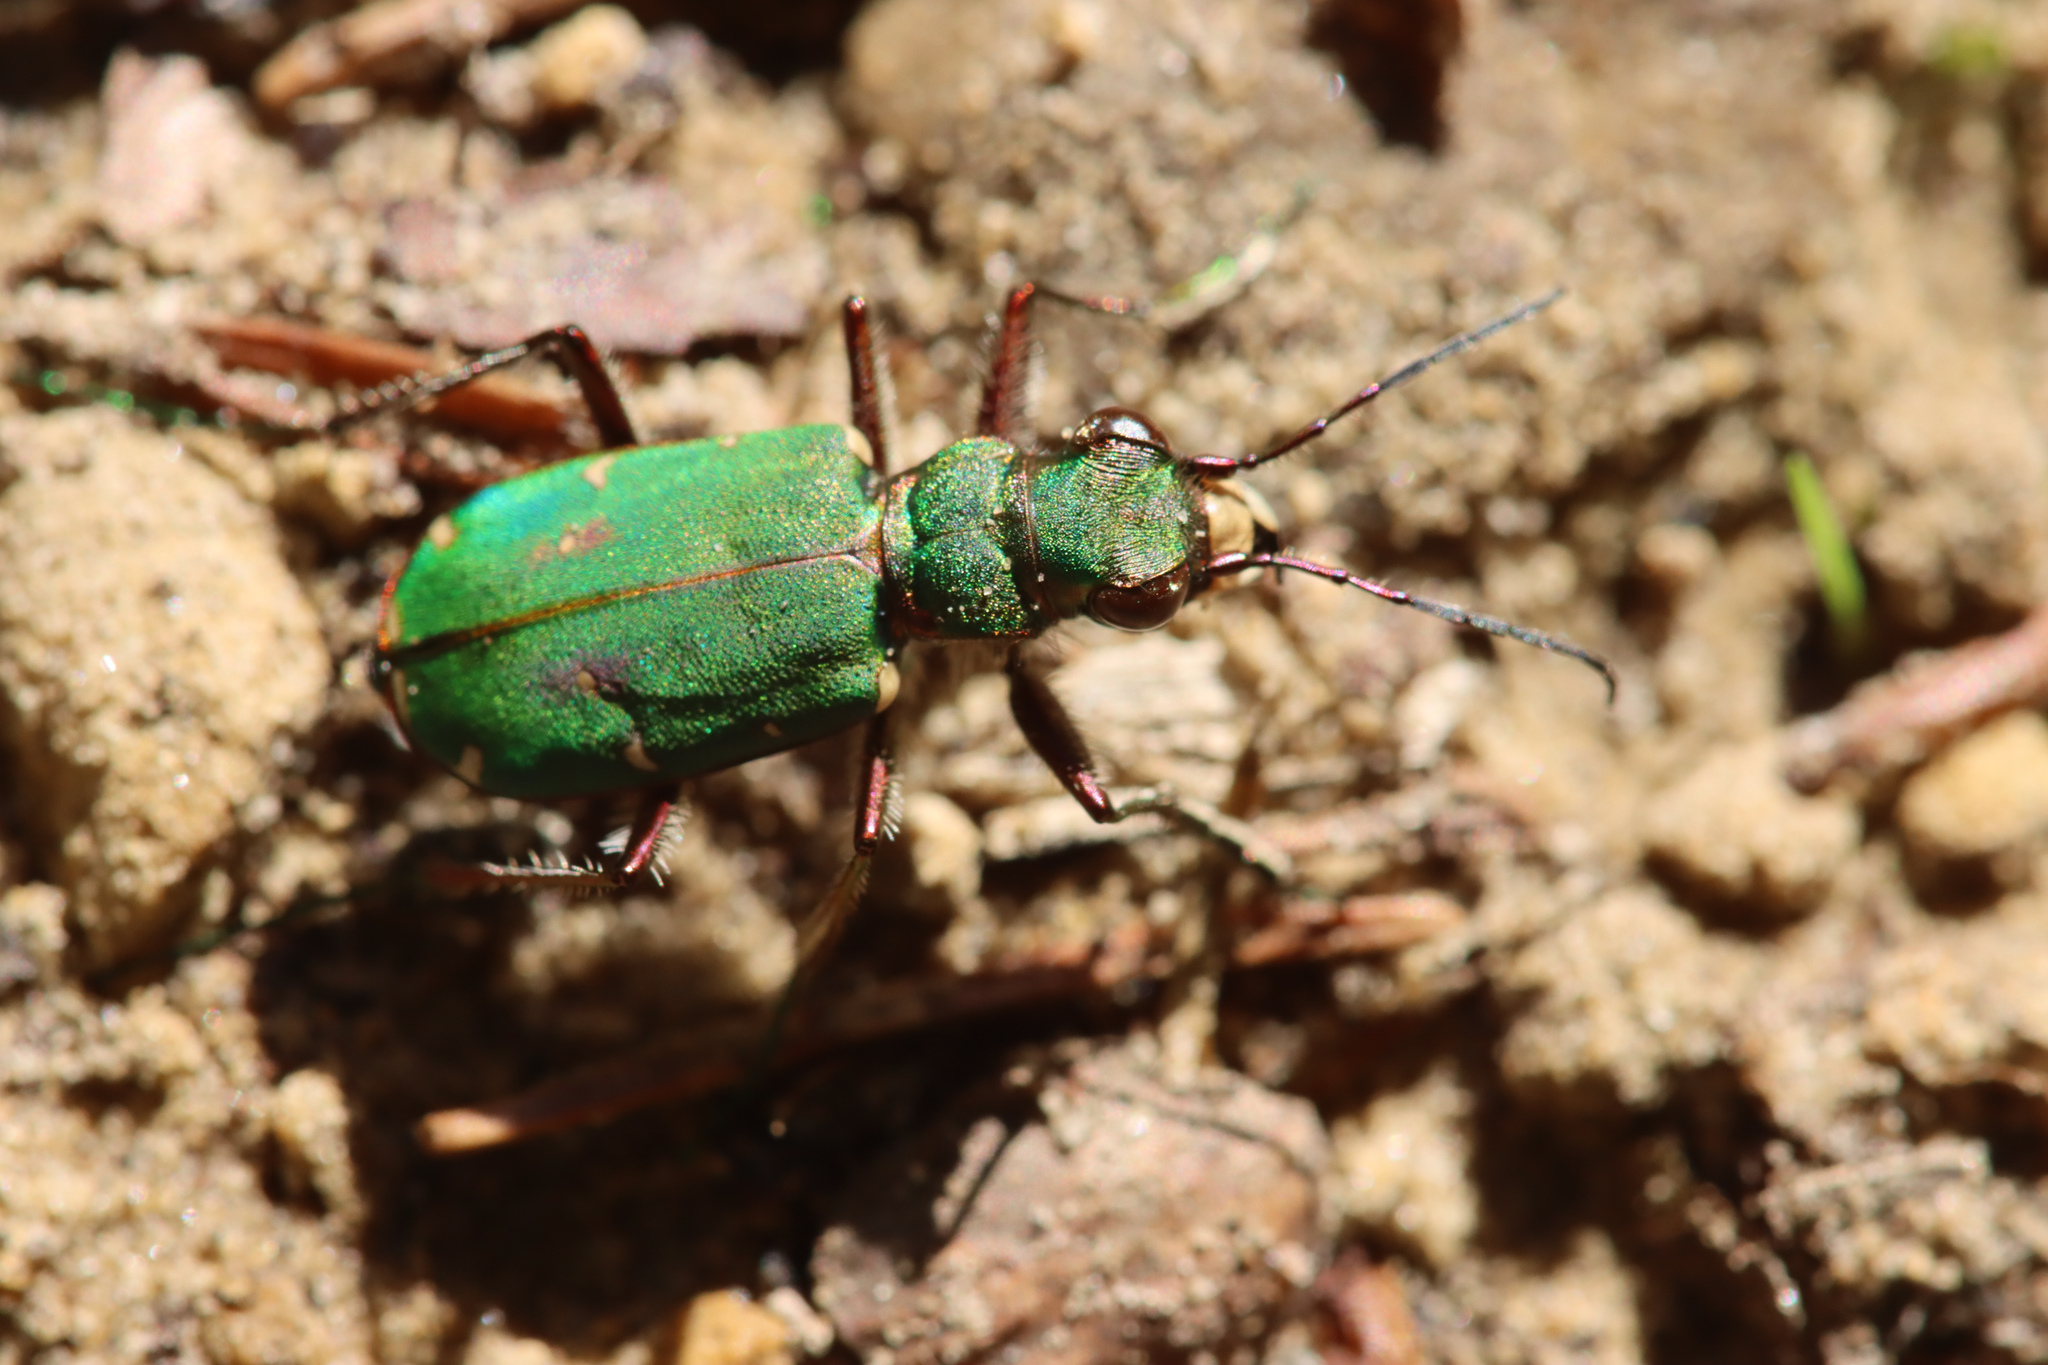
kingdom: Animalia
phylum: Arthropoda
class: Insecta
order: Coleoptera
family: Carabidae
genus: Cicindela
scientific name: Cicindela campestris
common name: Common tiger beetle
